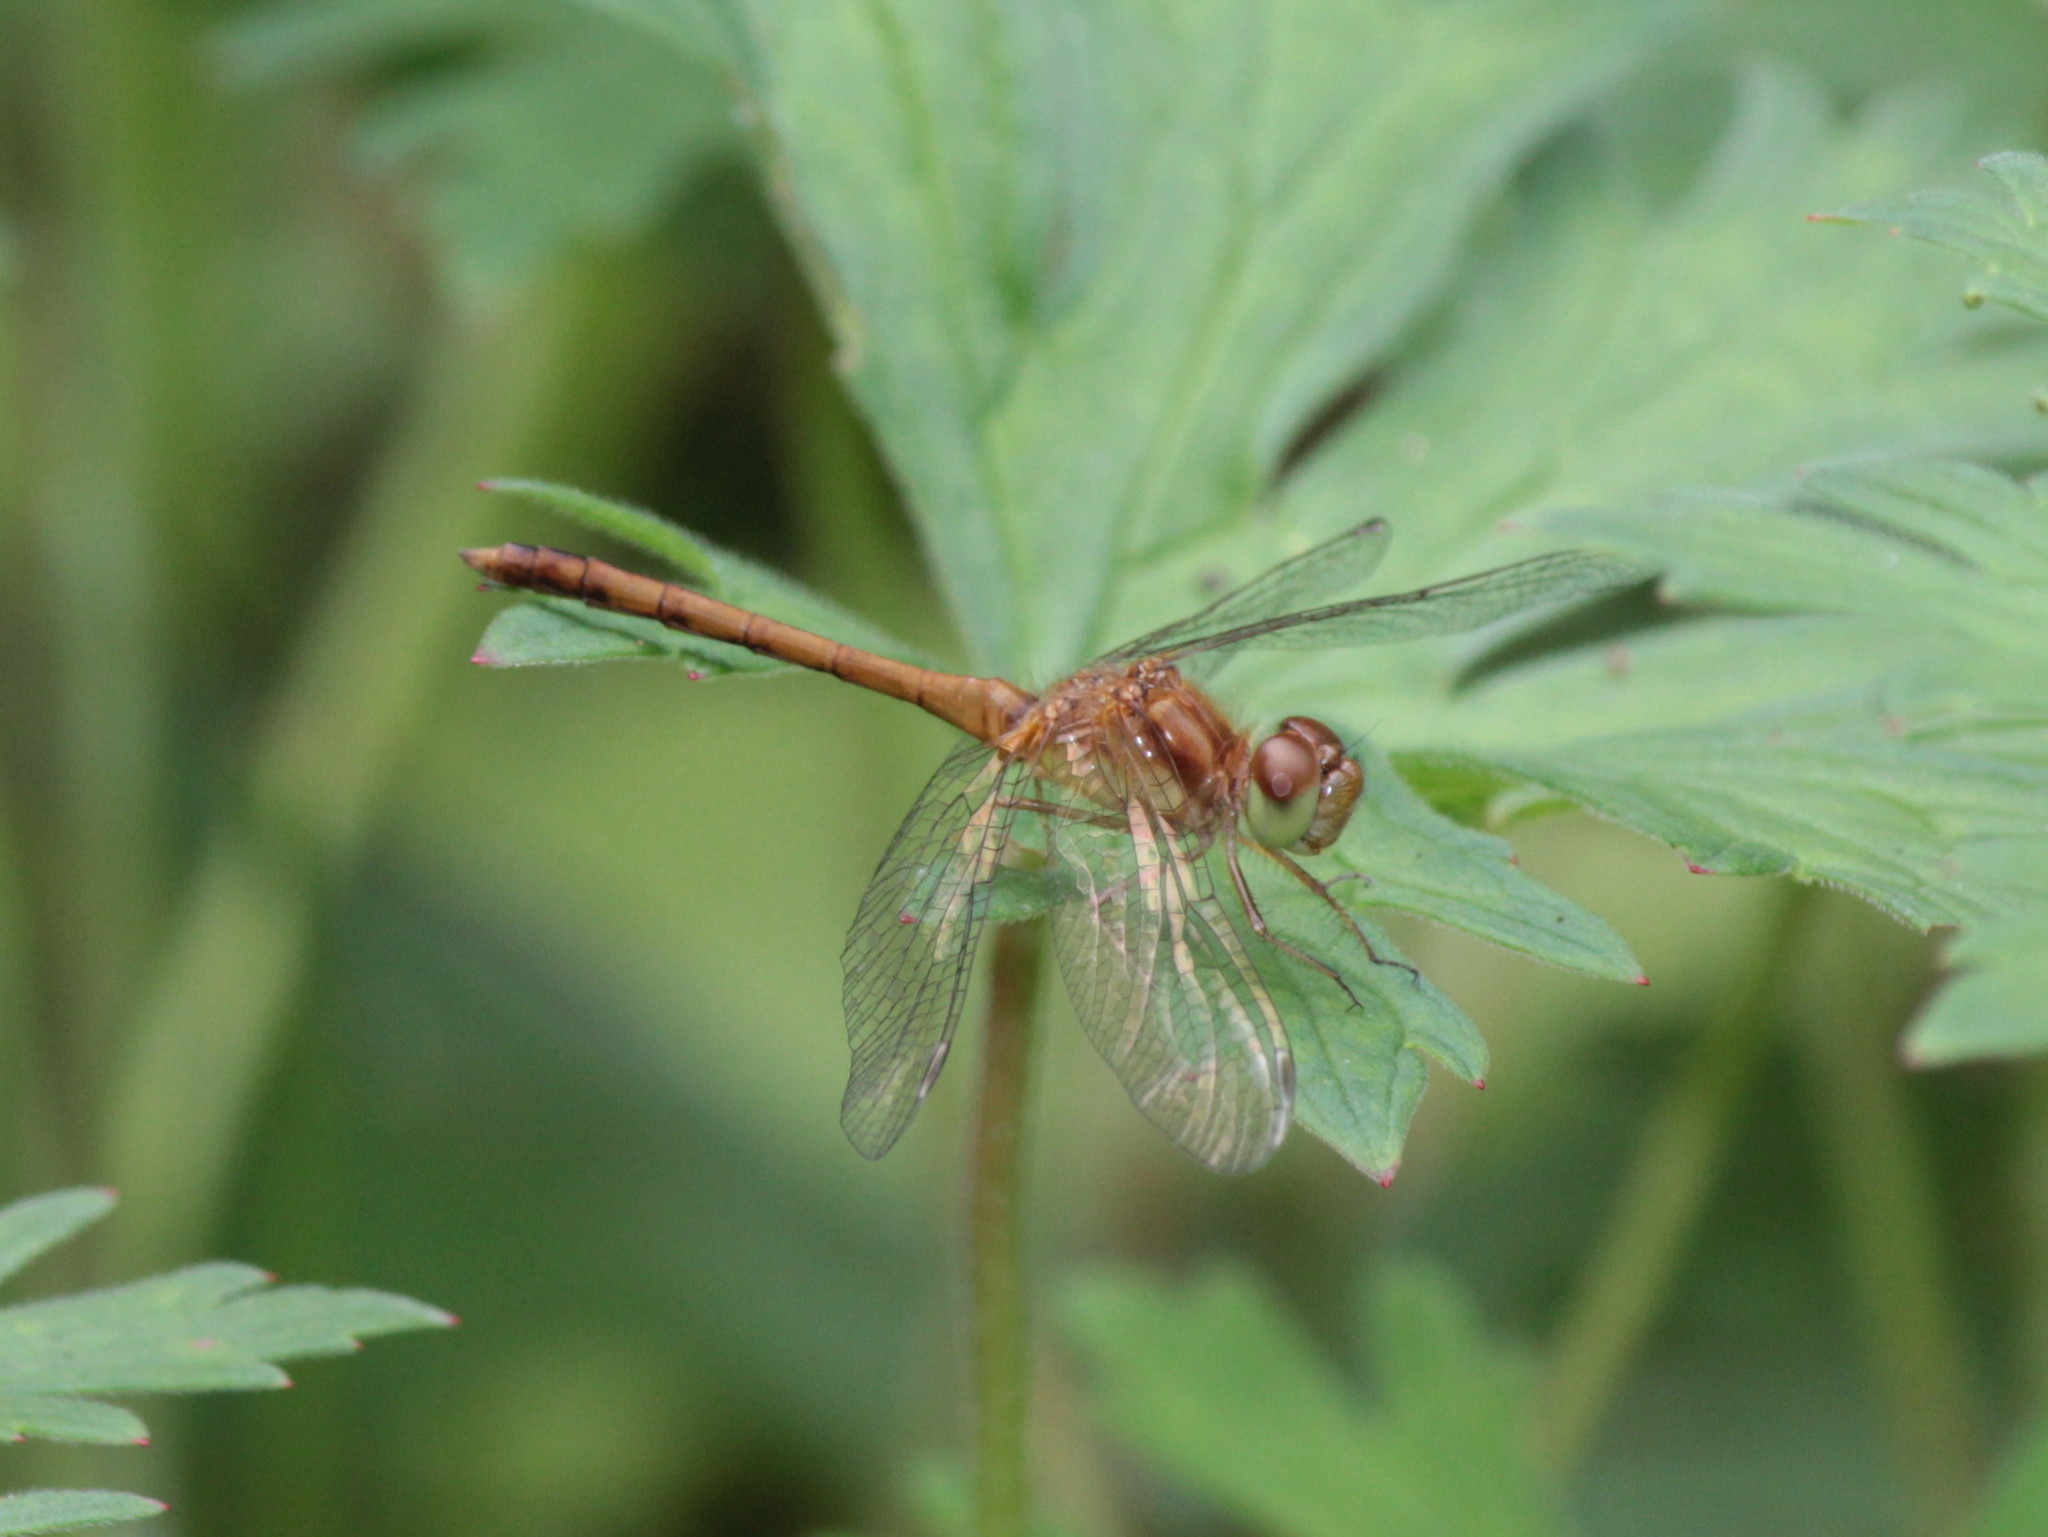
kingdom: Animalia
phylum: Arthropoda
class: Insecta
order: Odonata
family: Libellulidae
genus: Sympetrum
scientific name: Sympetrum vicinum
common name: Autumn meadowhawk
